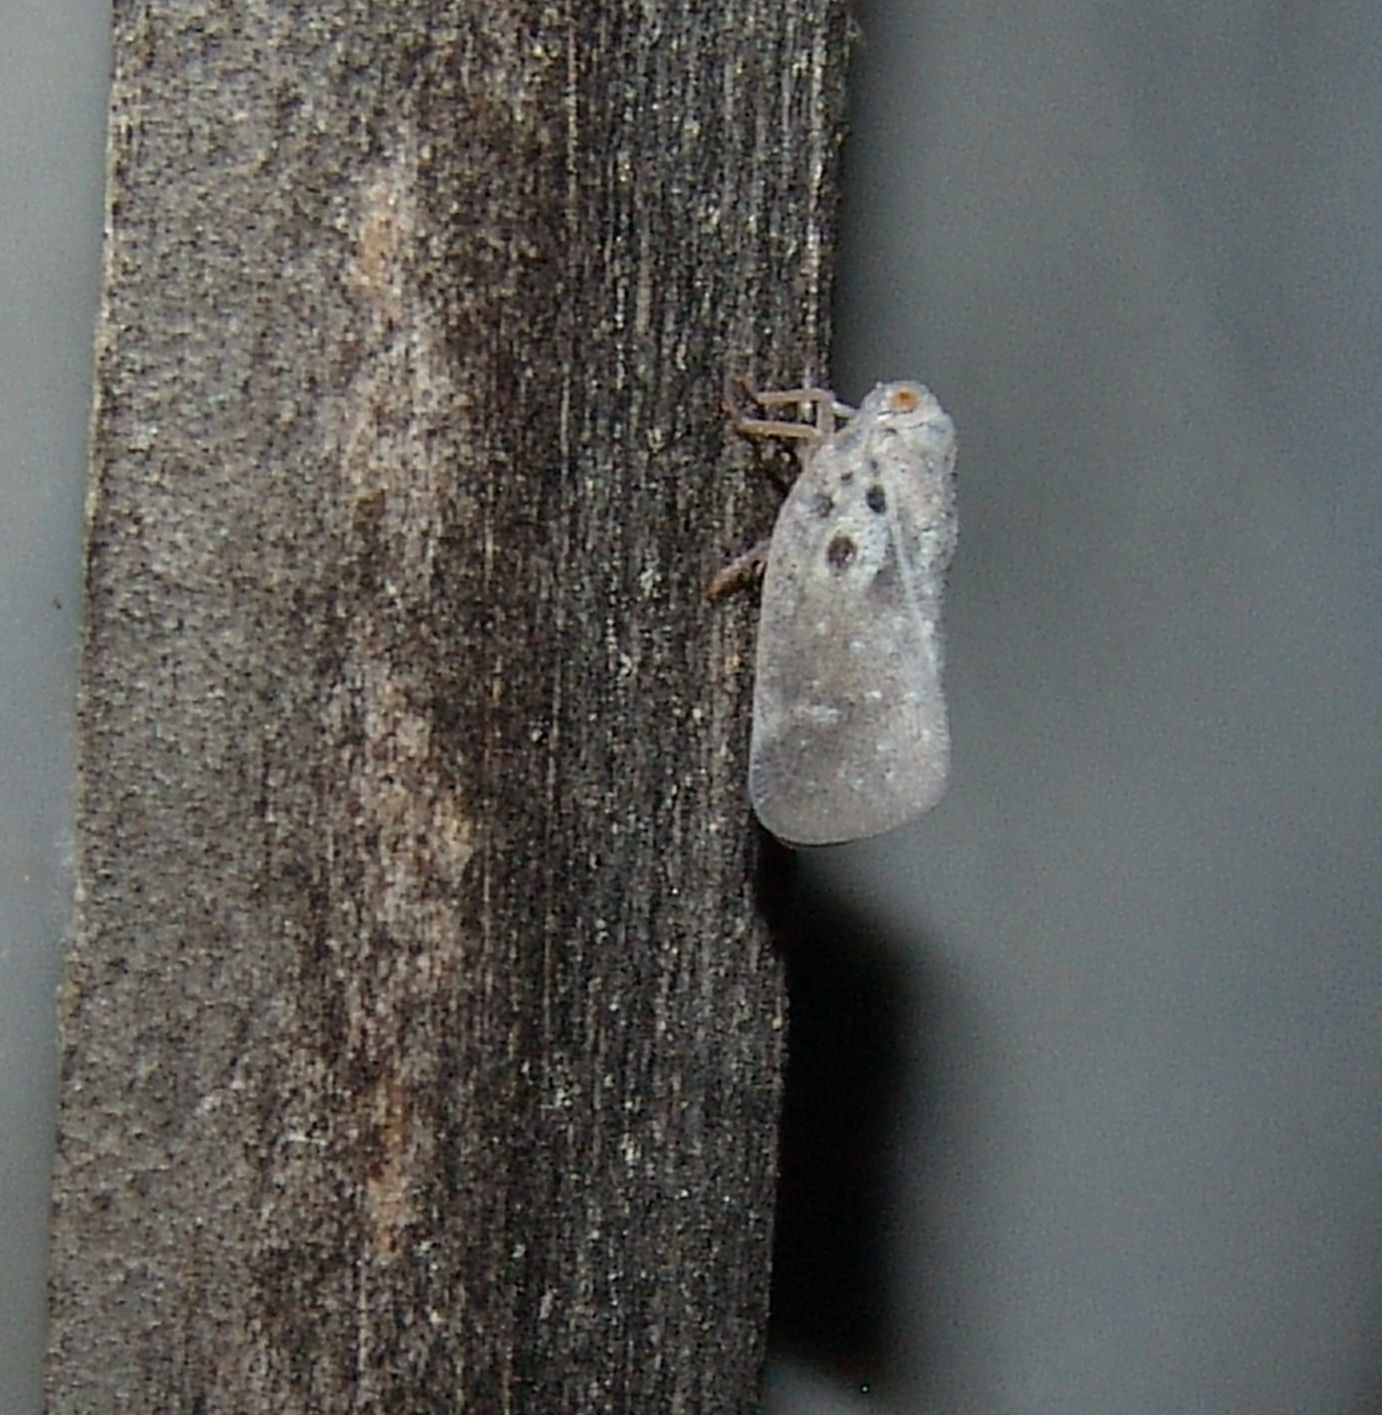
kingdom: Animalia
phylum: Arthropoda
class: Insecta
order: Hemiptera
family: Flatidae
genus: Metcalfa
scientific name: Metcalfa pruinosa
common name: Citrus flatid planthopper
